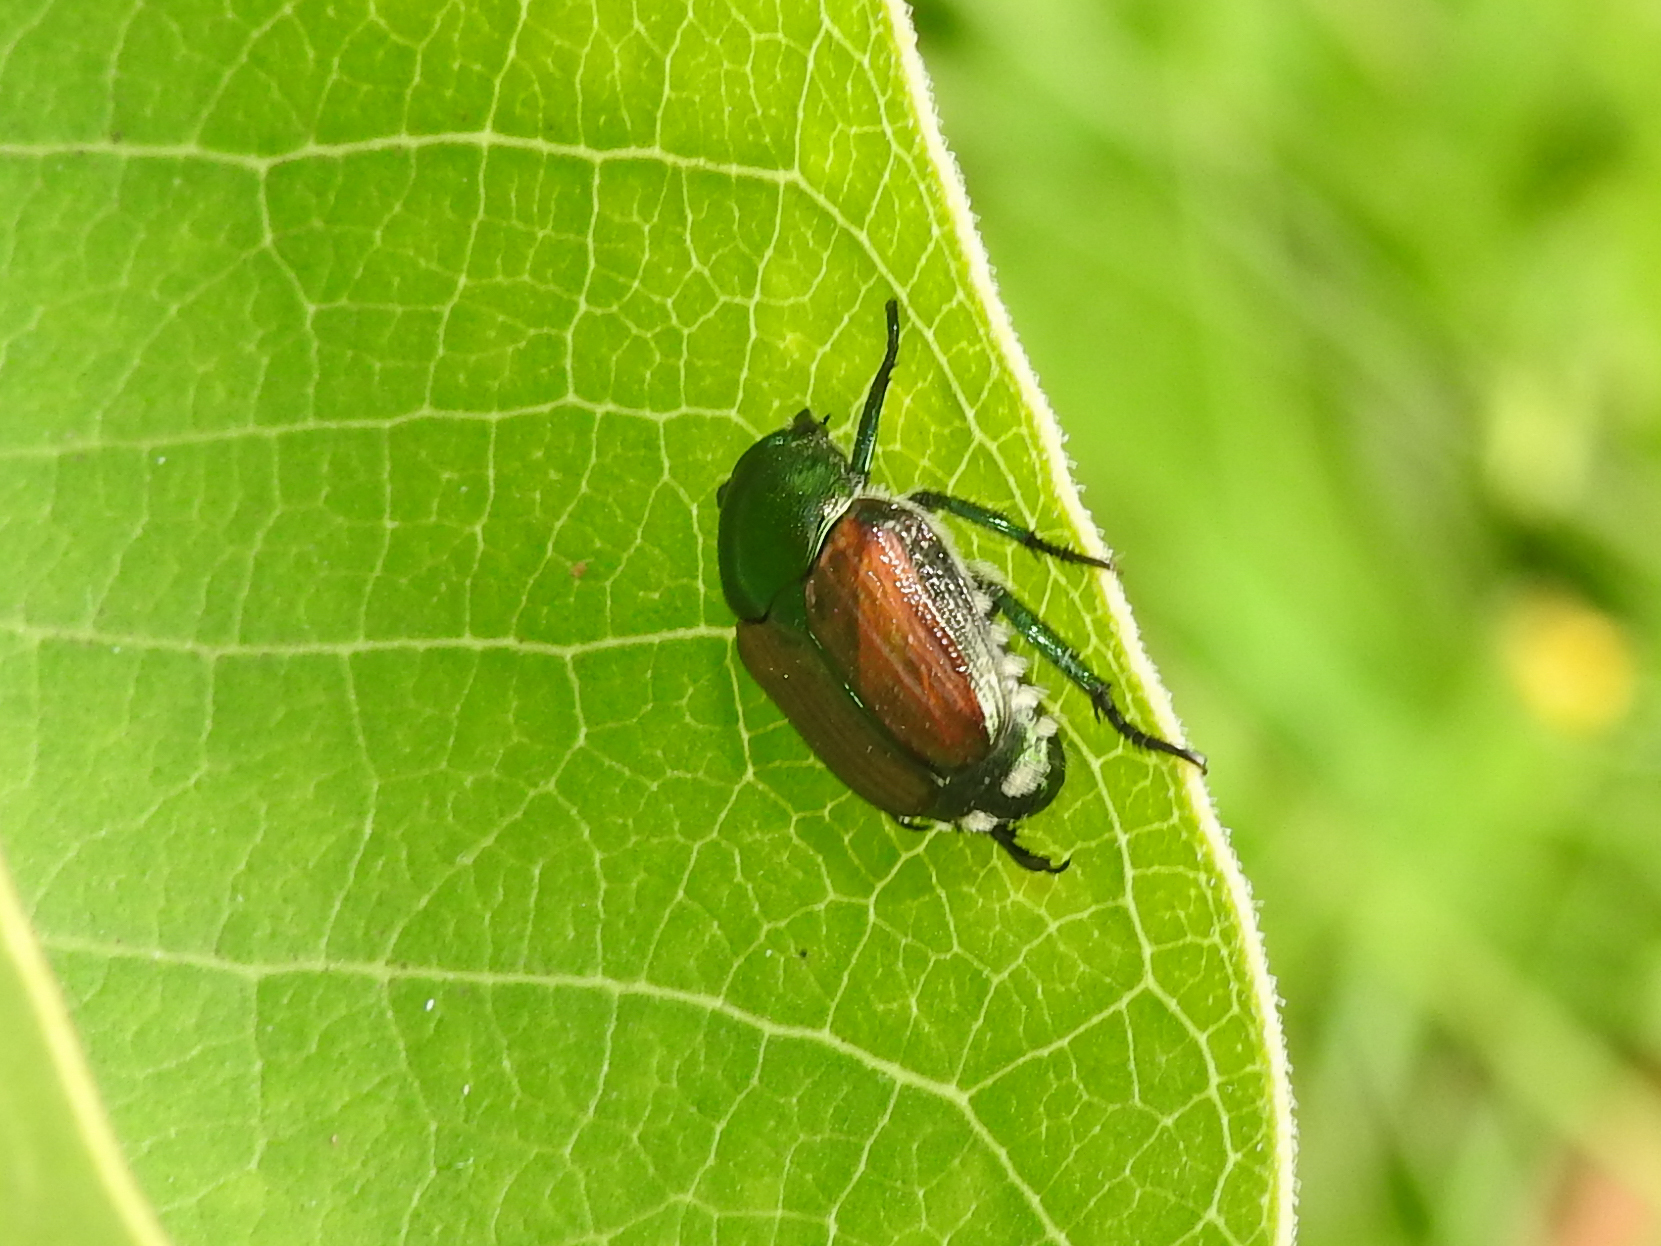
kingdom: Animalia
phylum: Arthropoda
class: Insecta
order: Coleoptera
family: Scarabaeidae
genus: Popillia
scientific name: Popillia japonica
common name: Japanese beetle
